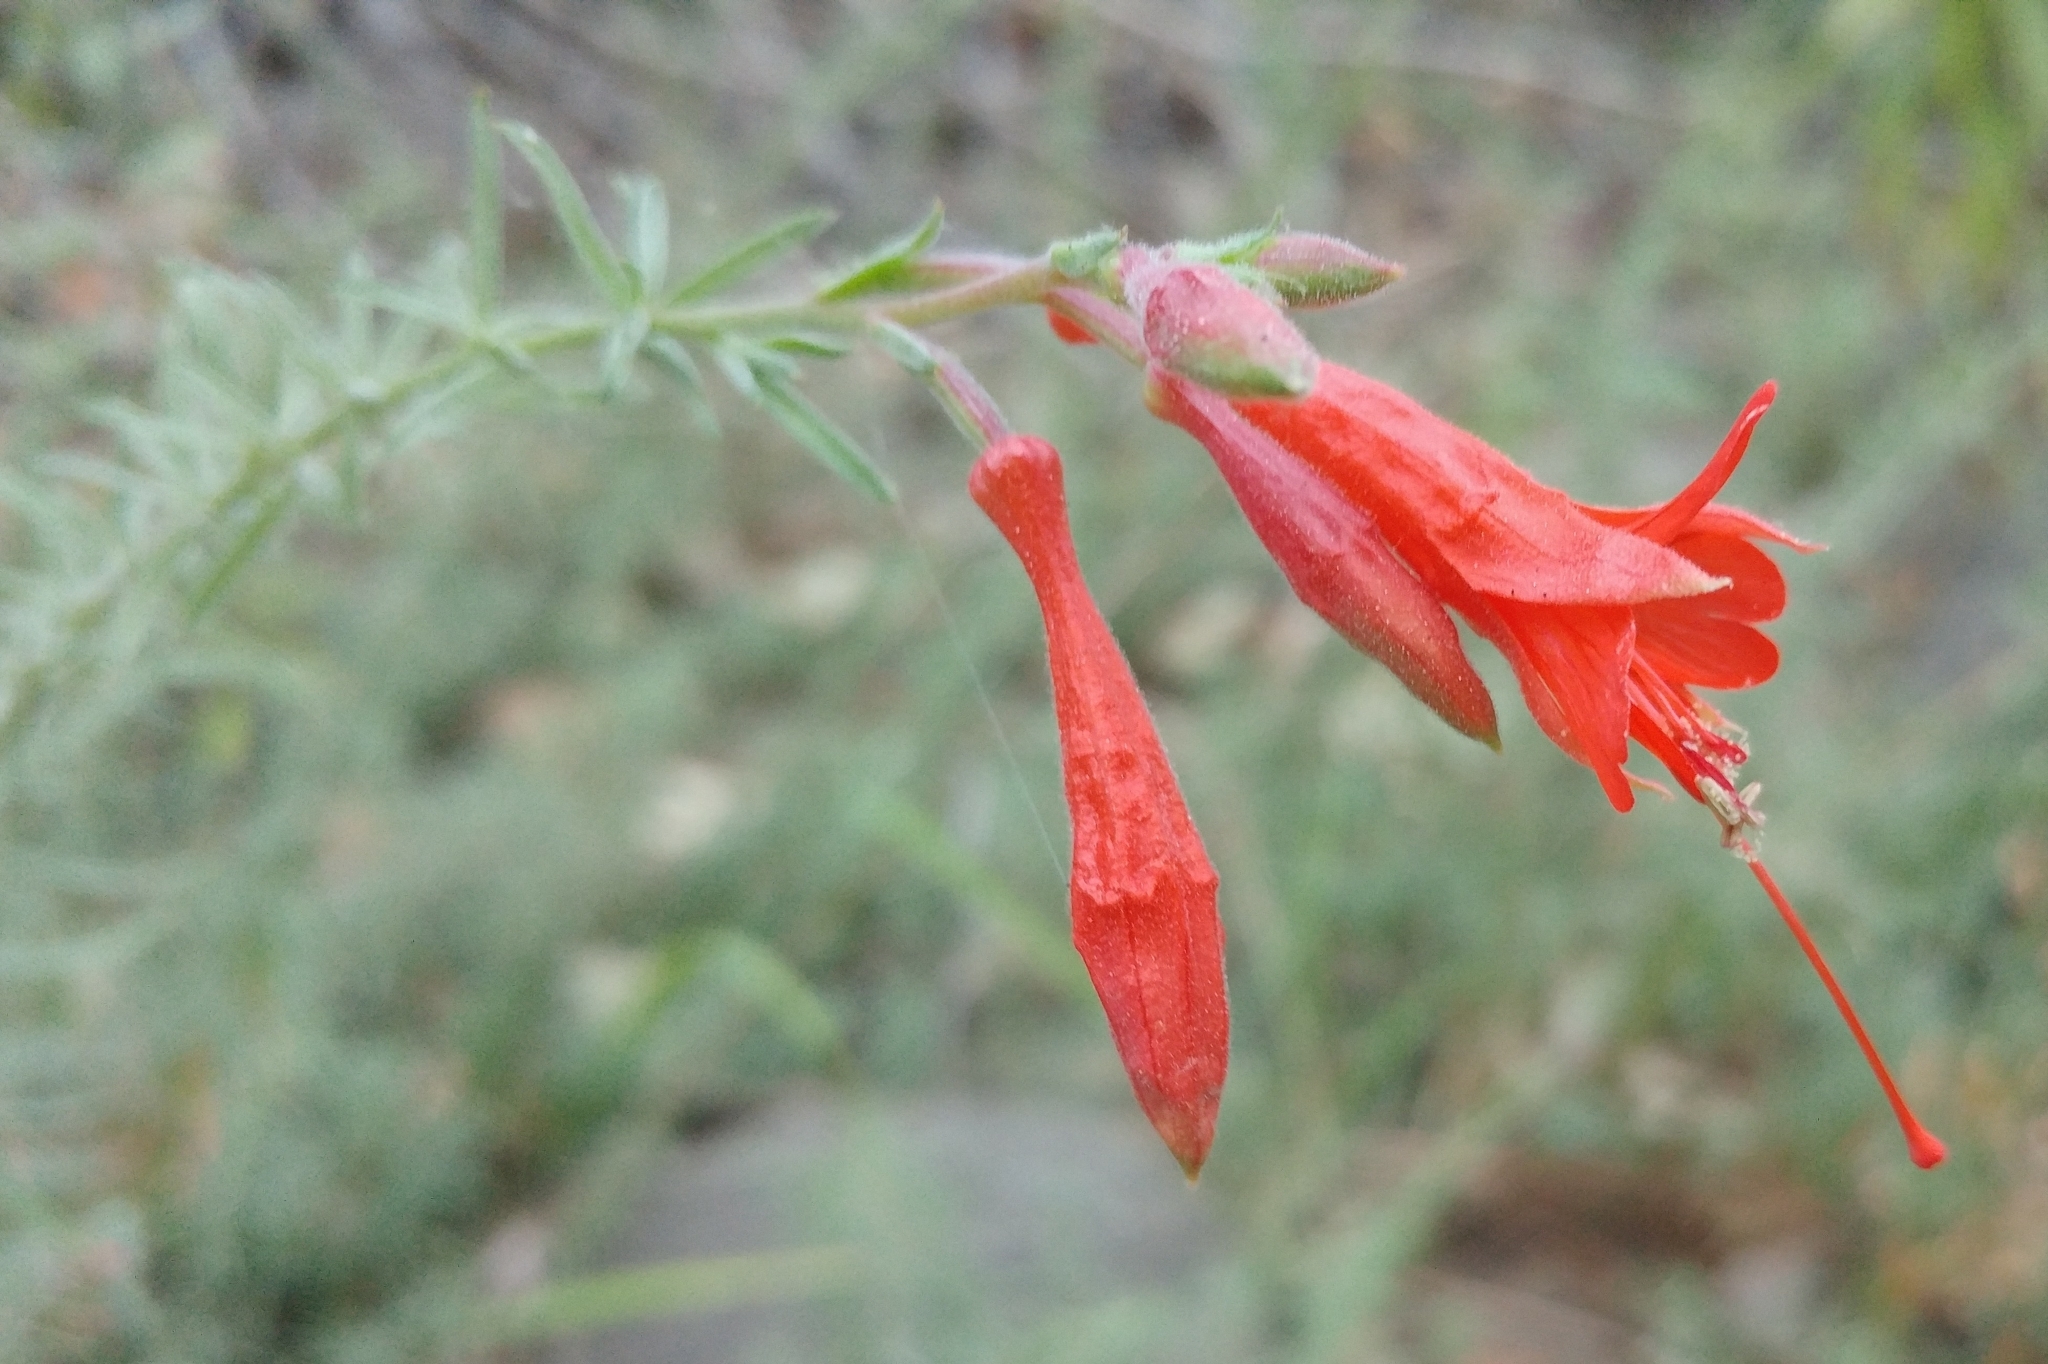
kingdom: Plantae
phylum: Tracheophyta
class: Magnoliopsida
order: Myrtales
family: Onagraceae
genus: Epilobium
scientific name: Epilobium canum
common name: California-fuchsia
